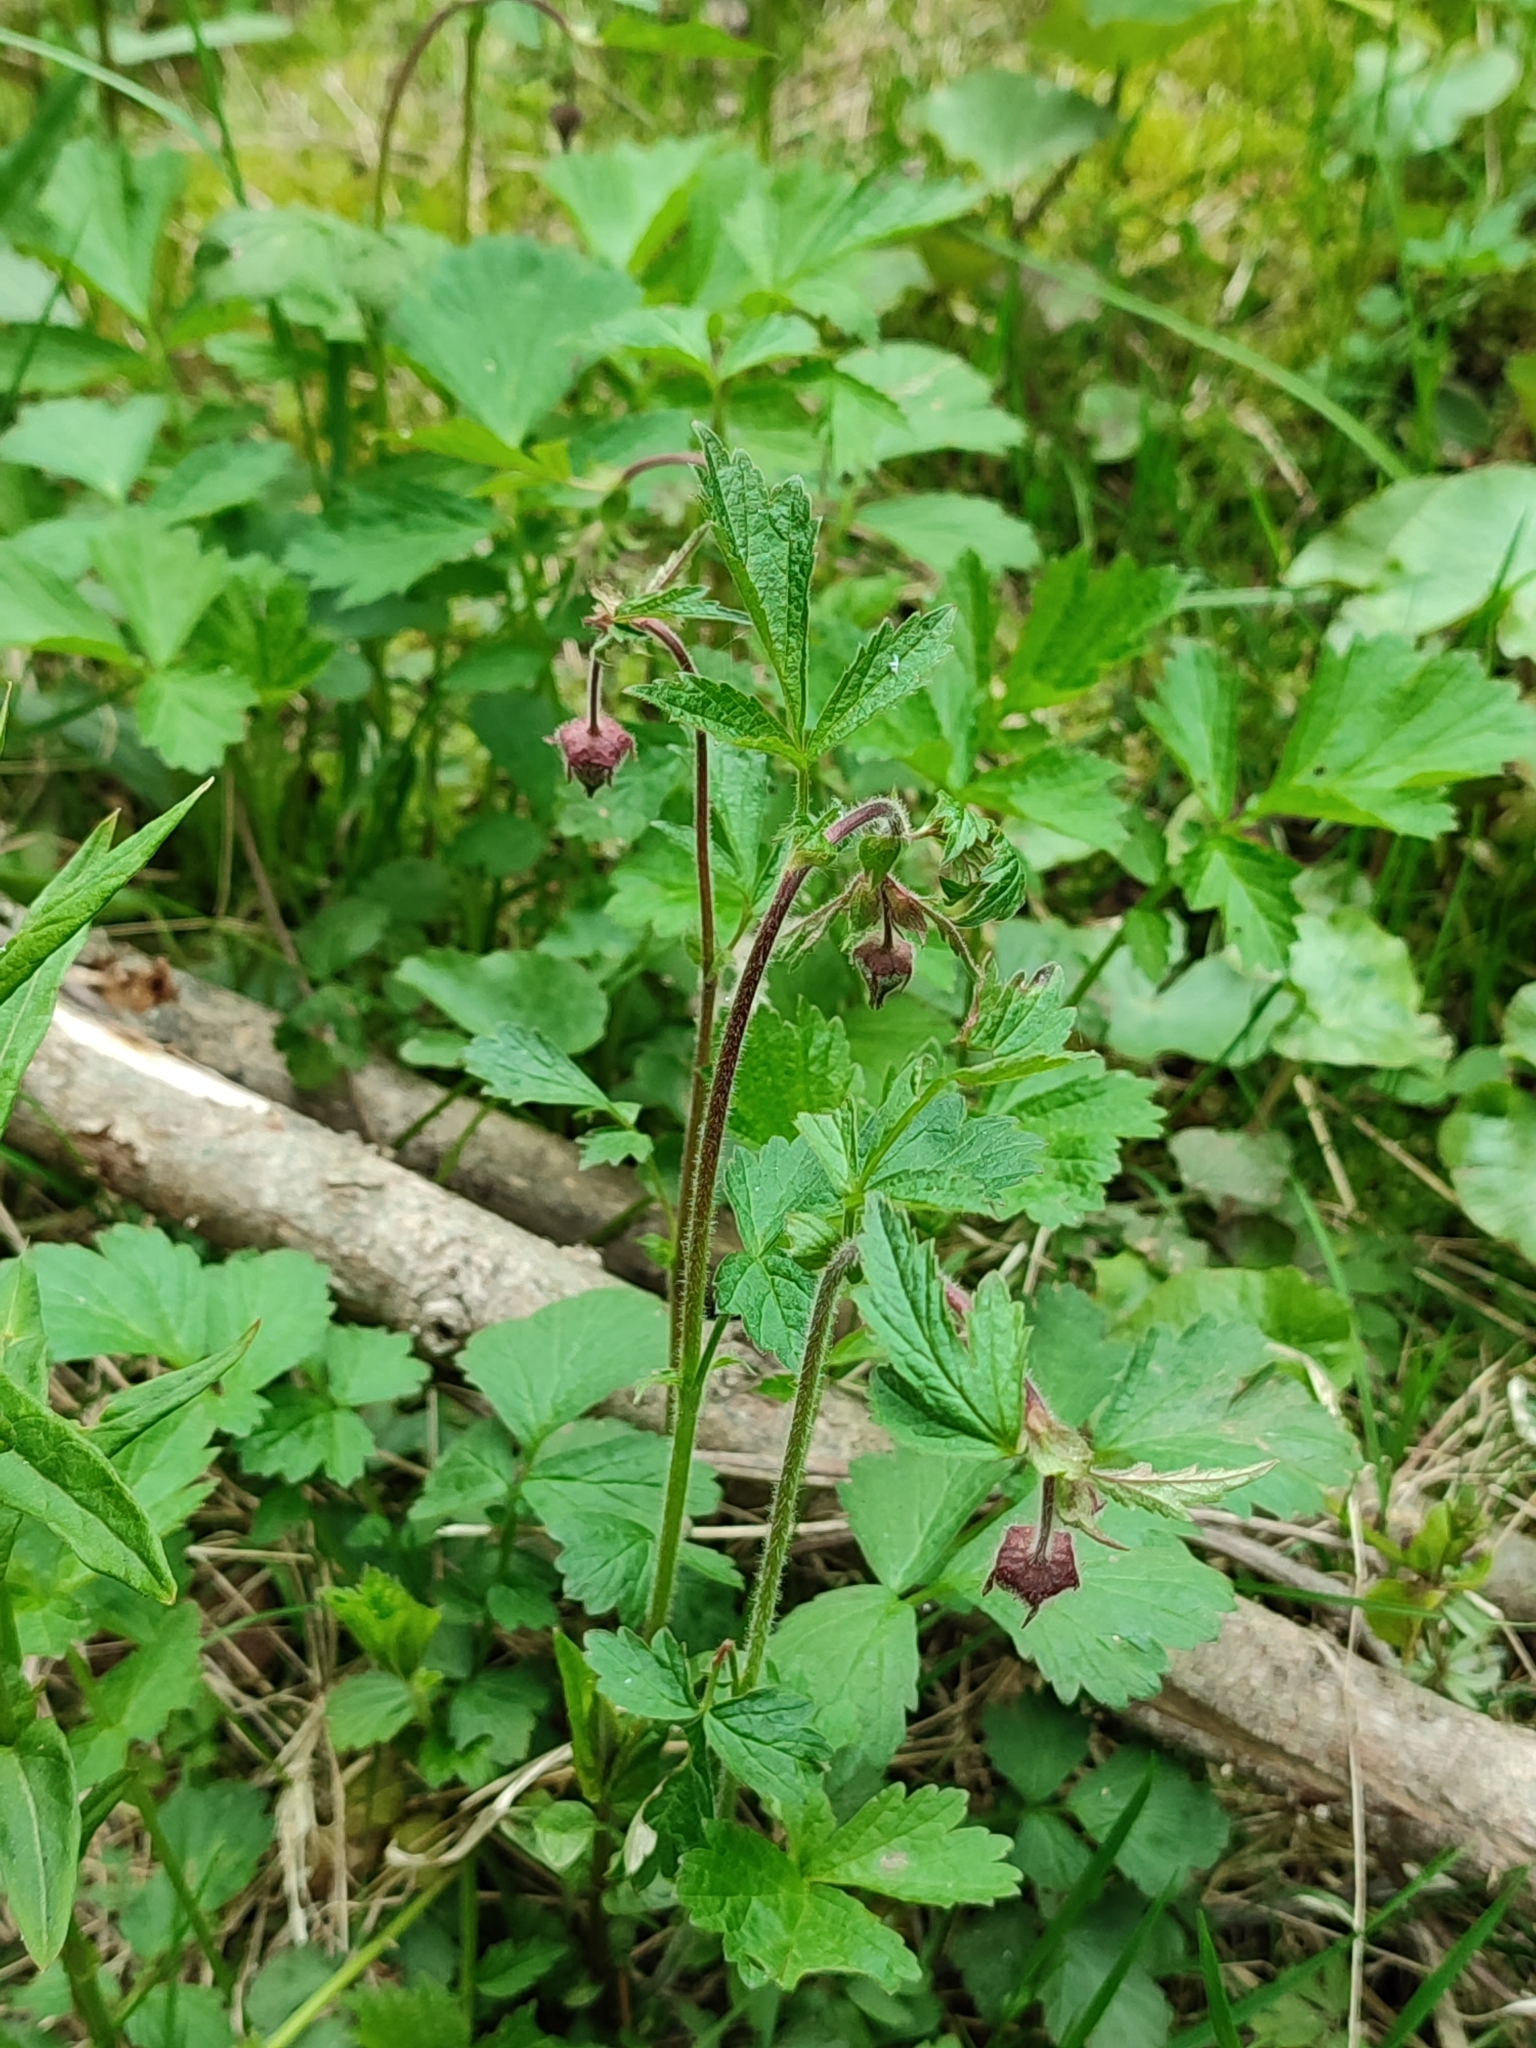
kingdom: Plantae
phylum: Tracheophyta
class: Magnoliopsida
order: Rosales
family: Rosaceae
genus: Geum
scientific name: Geum rivale
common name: Water avens
